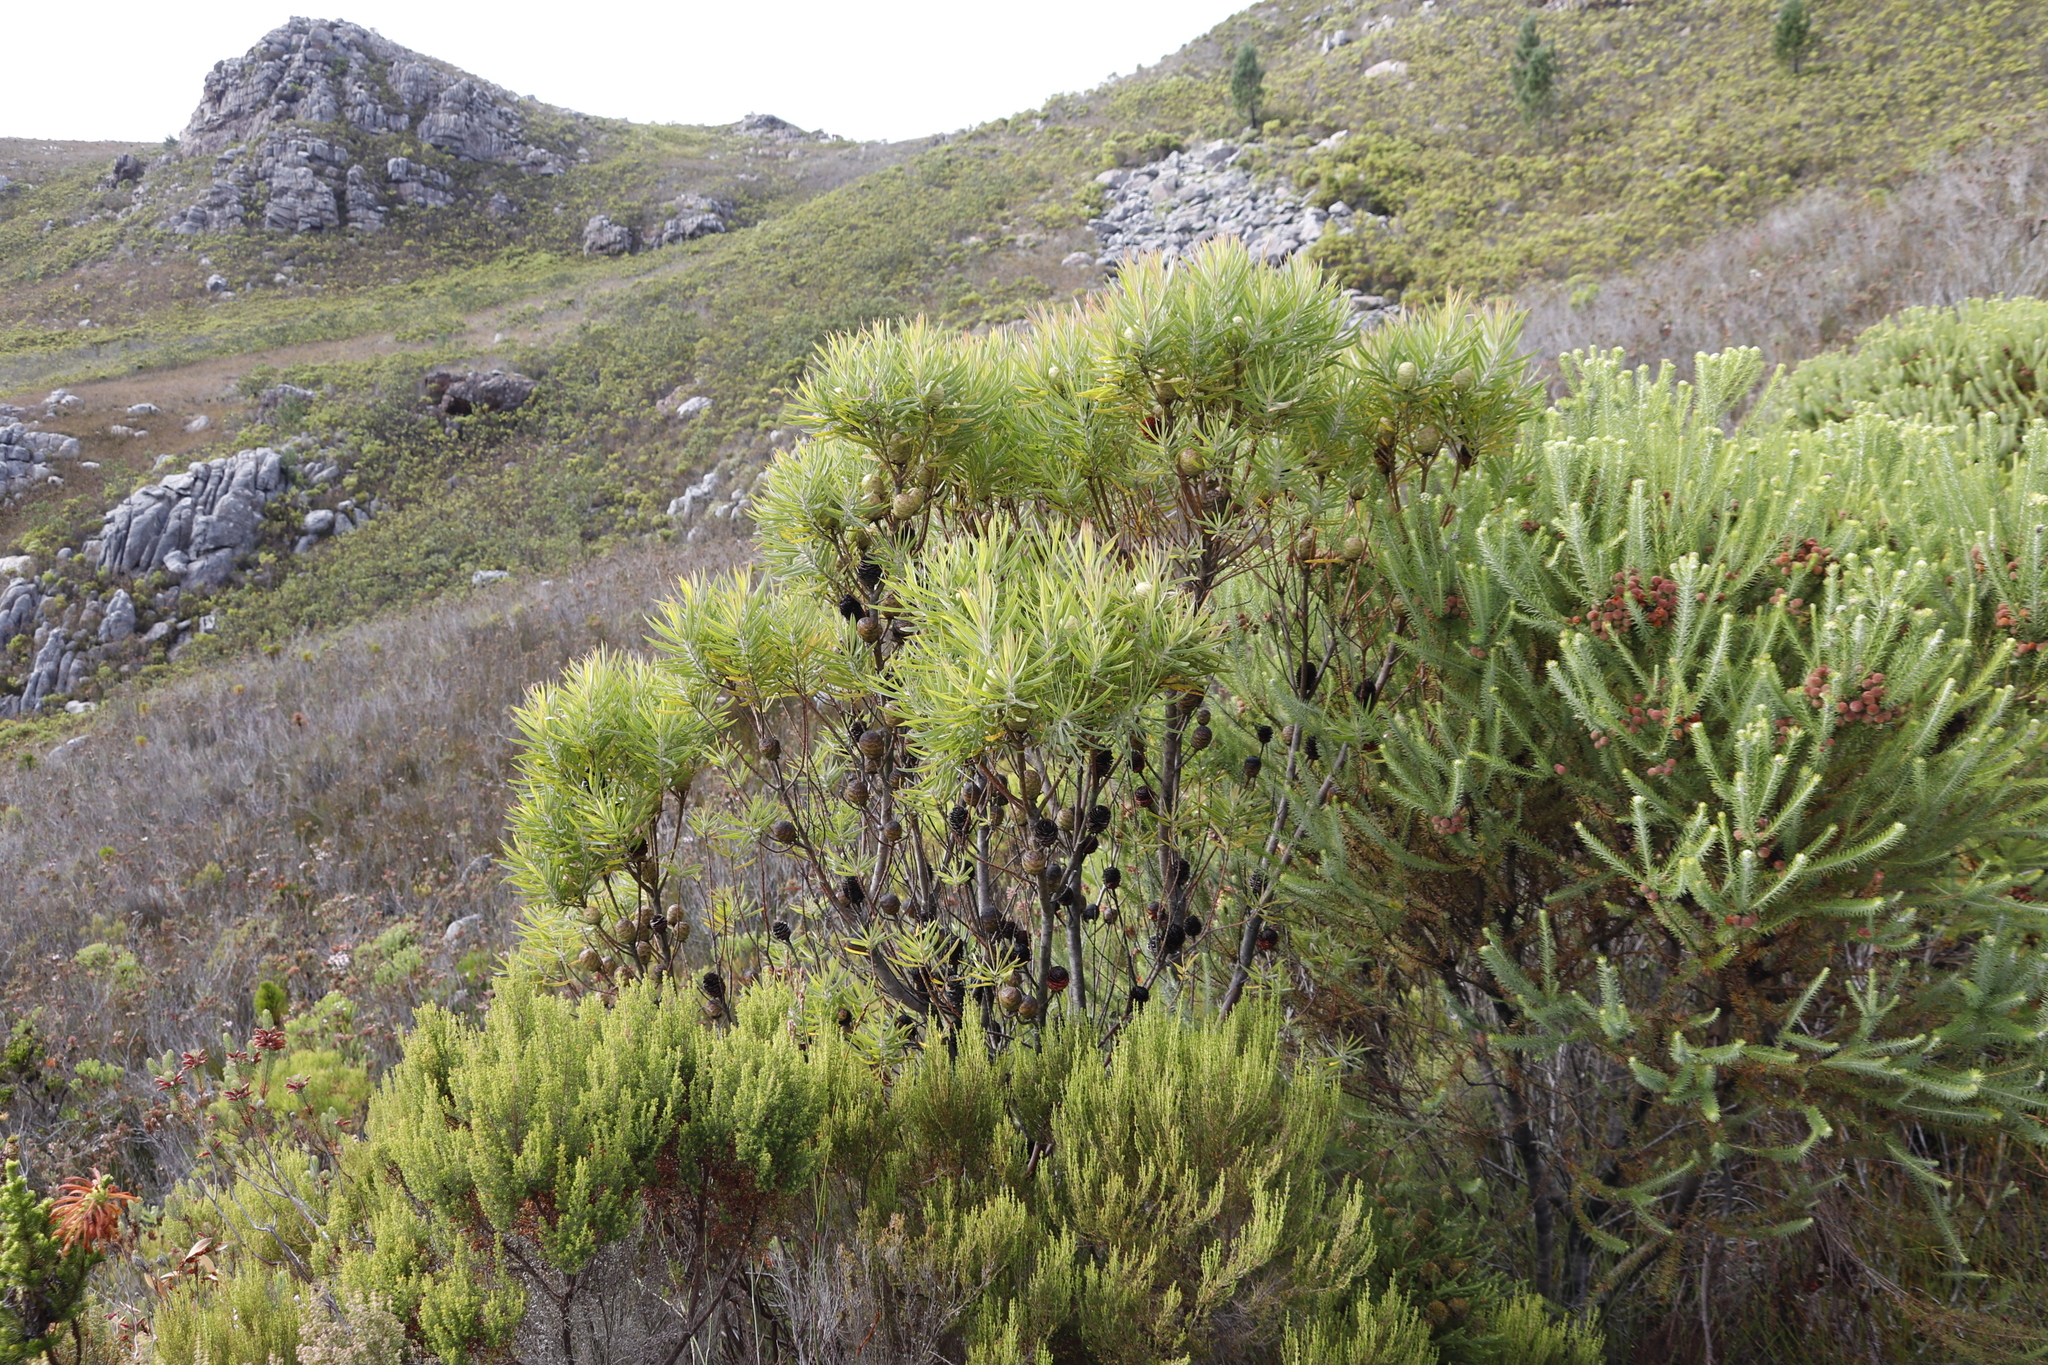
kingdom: Plantae
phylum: Tracheophyta
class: Magnoliopsida
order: Proteales
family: Proteaceae
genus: Leucadendron
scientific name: Leucadendron salicifolium
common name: Common stream conebush
